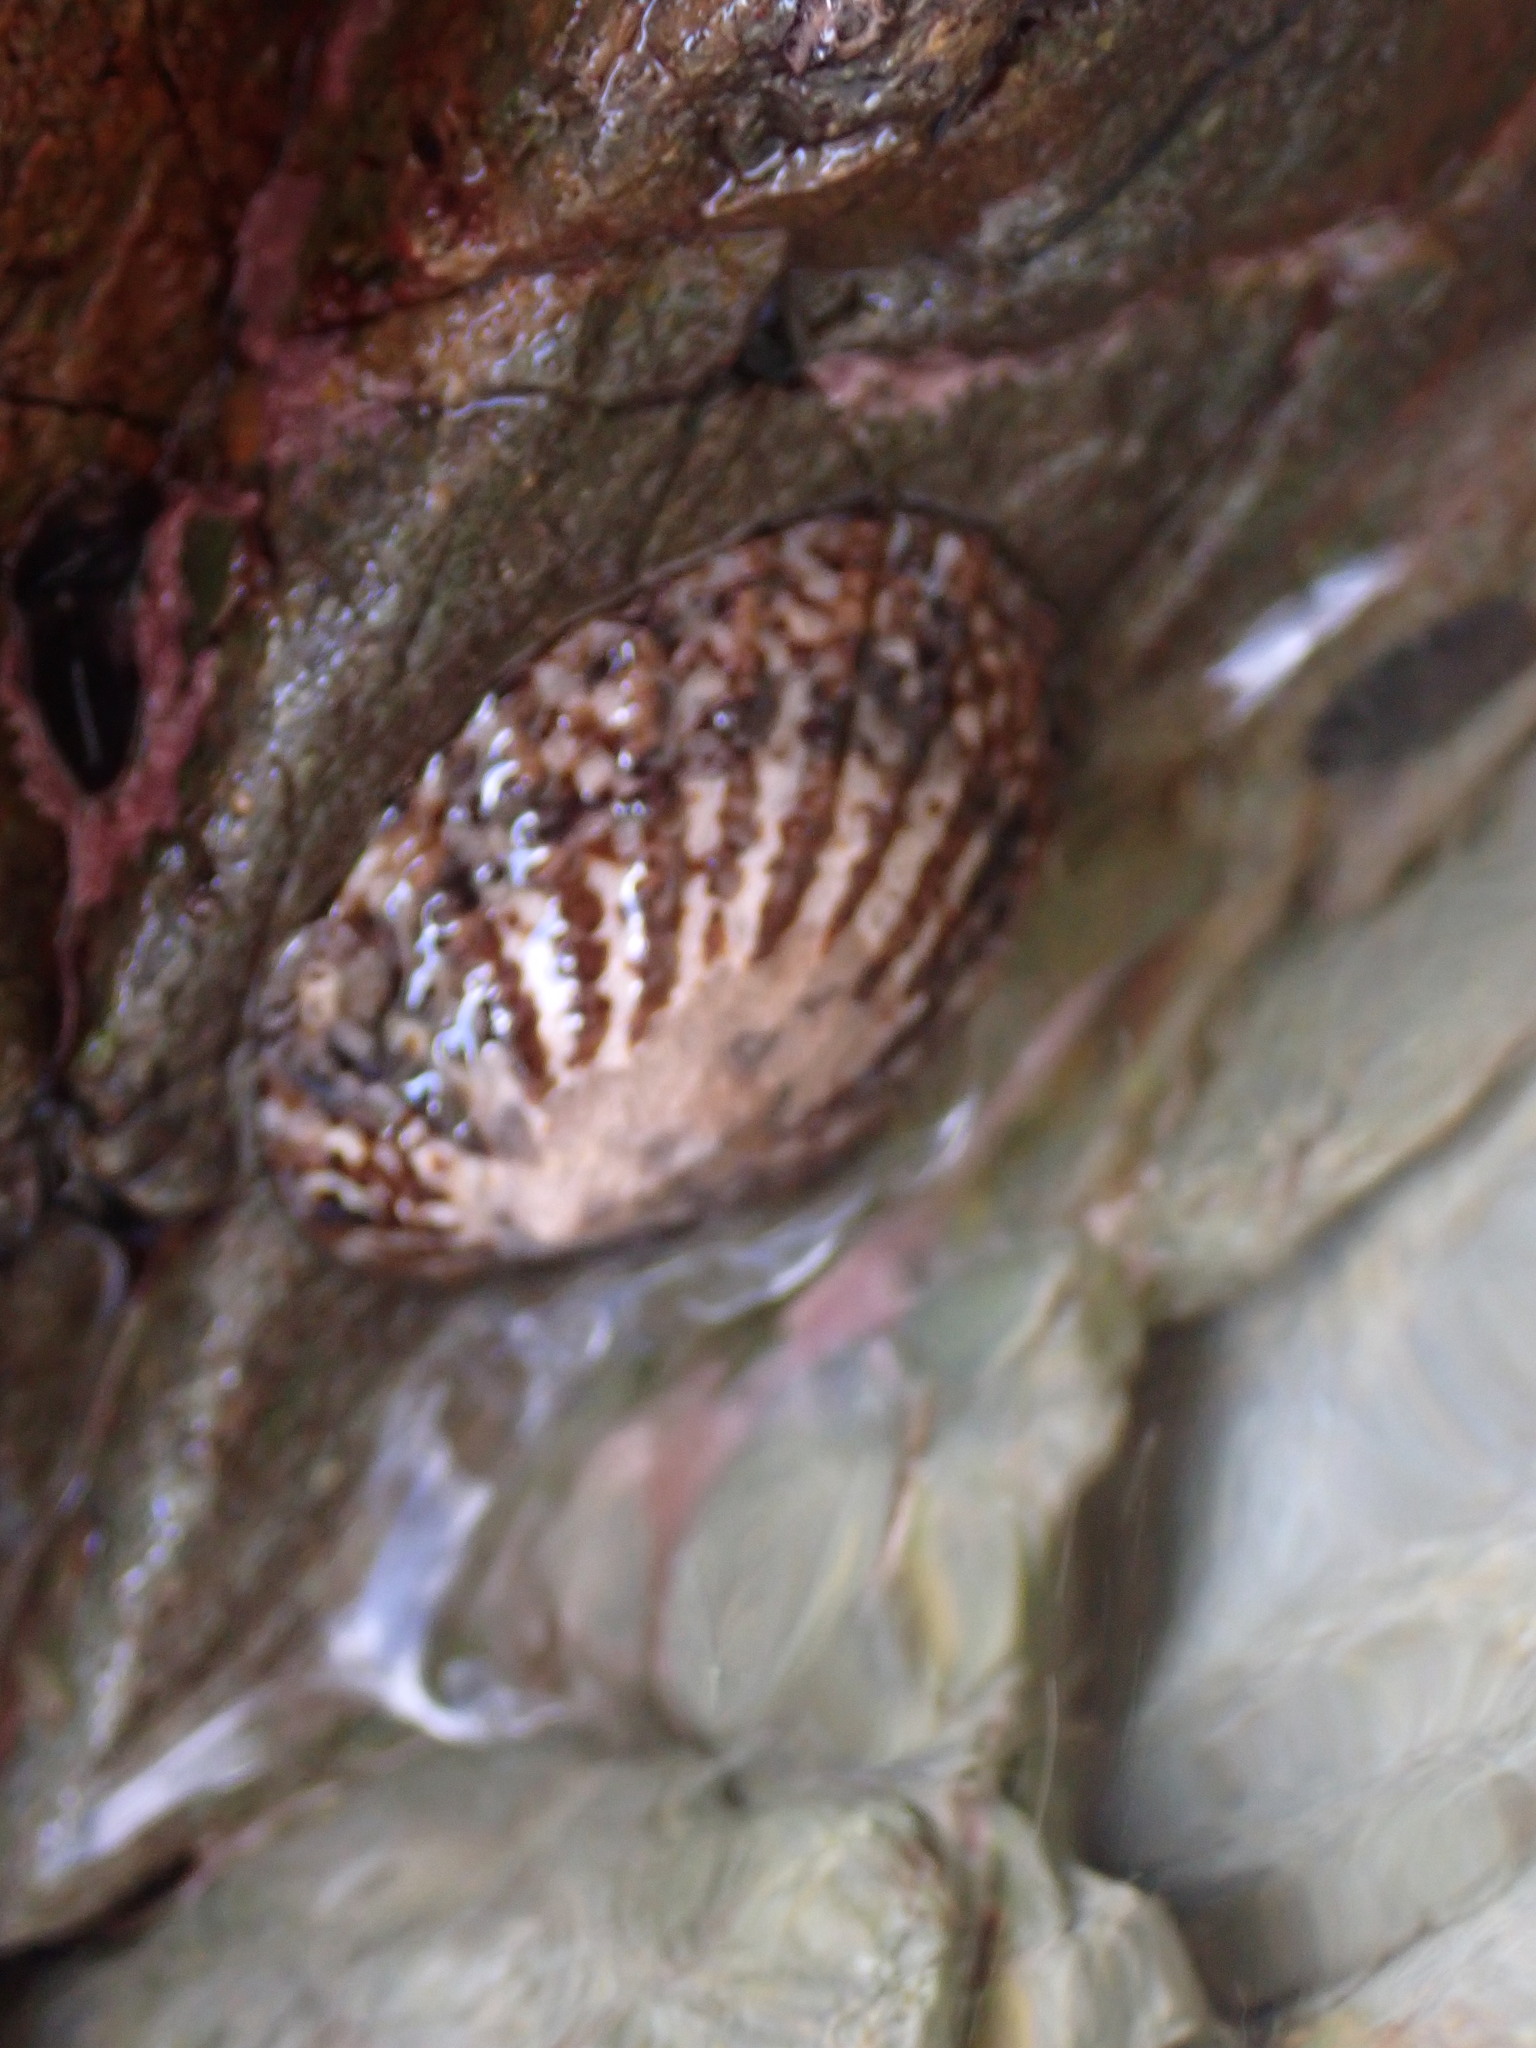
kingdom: Animalia
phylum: Mollusca
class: Gastropoda
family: Nacellidae
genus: Cellana
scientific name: Cellana denticulata
